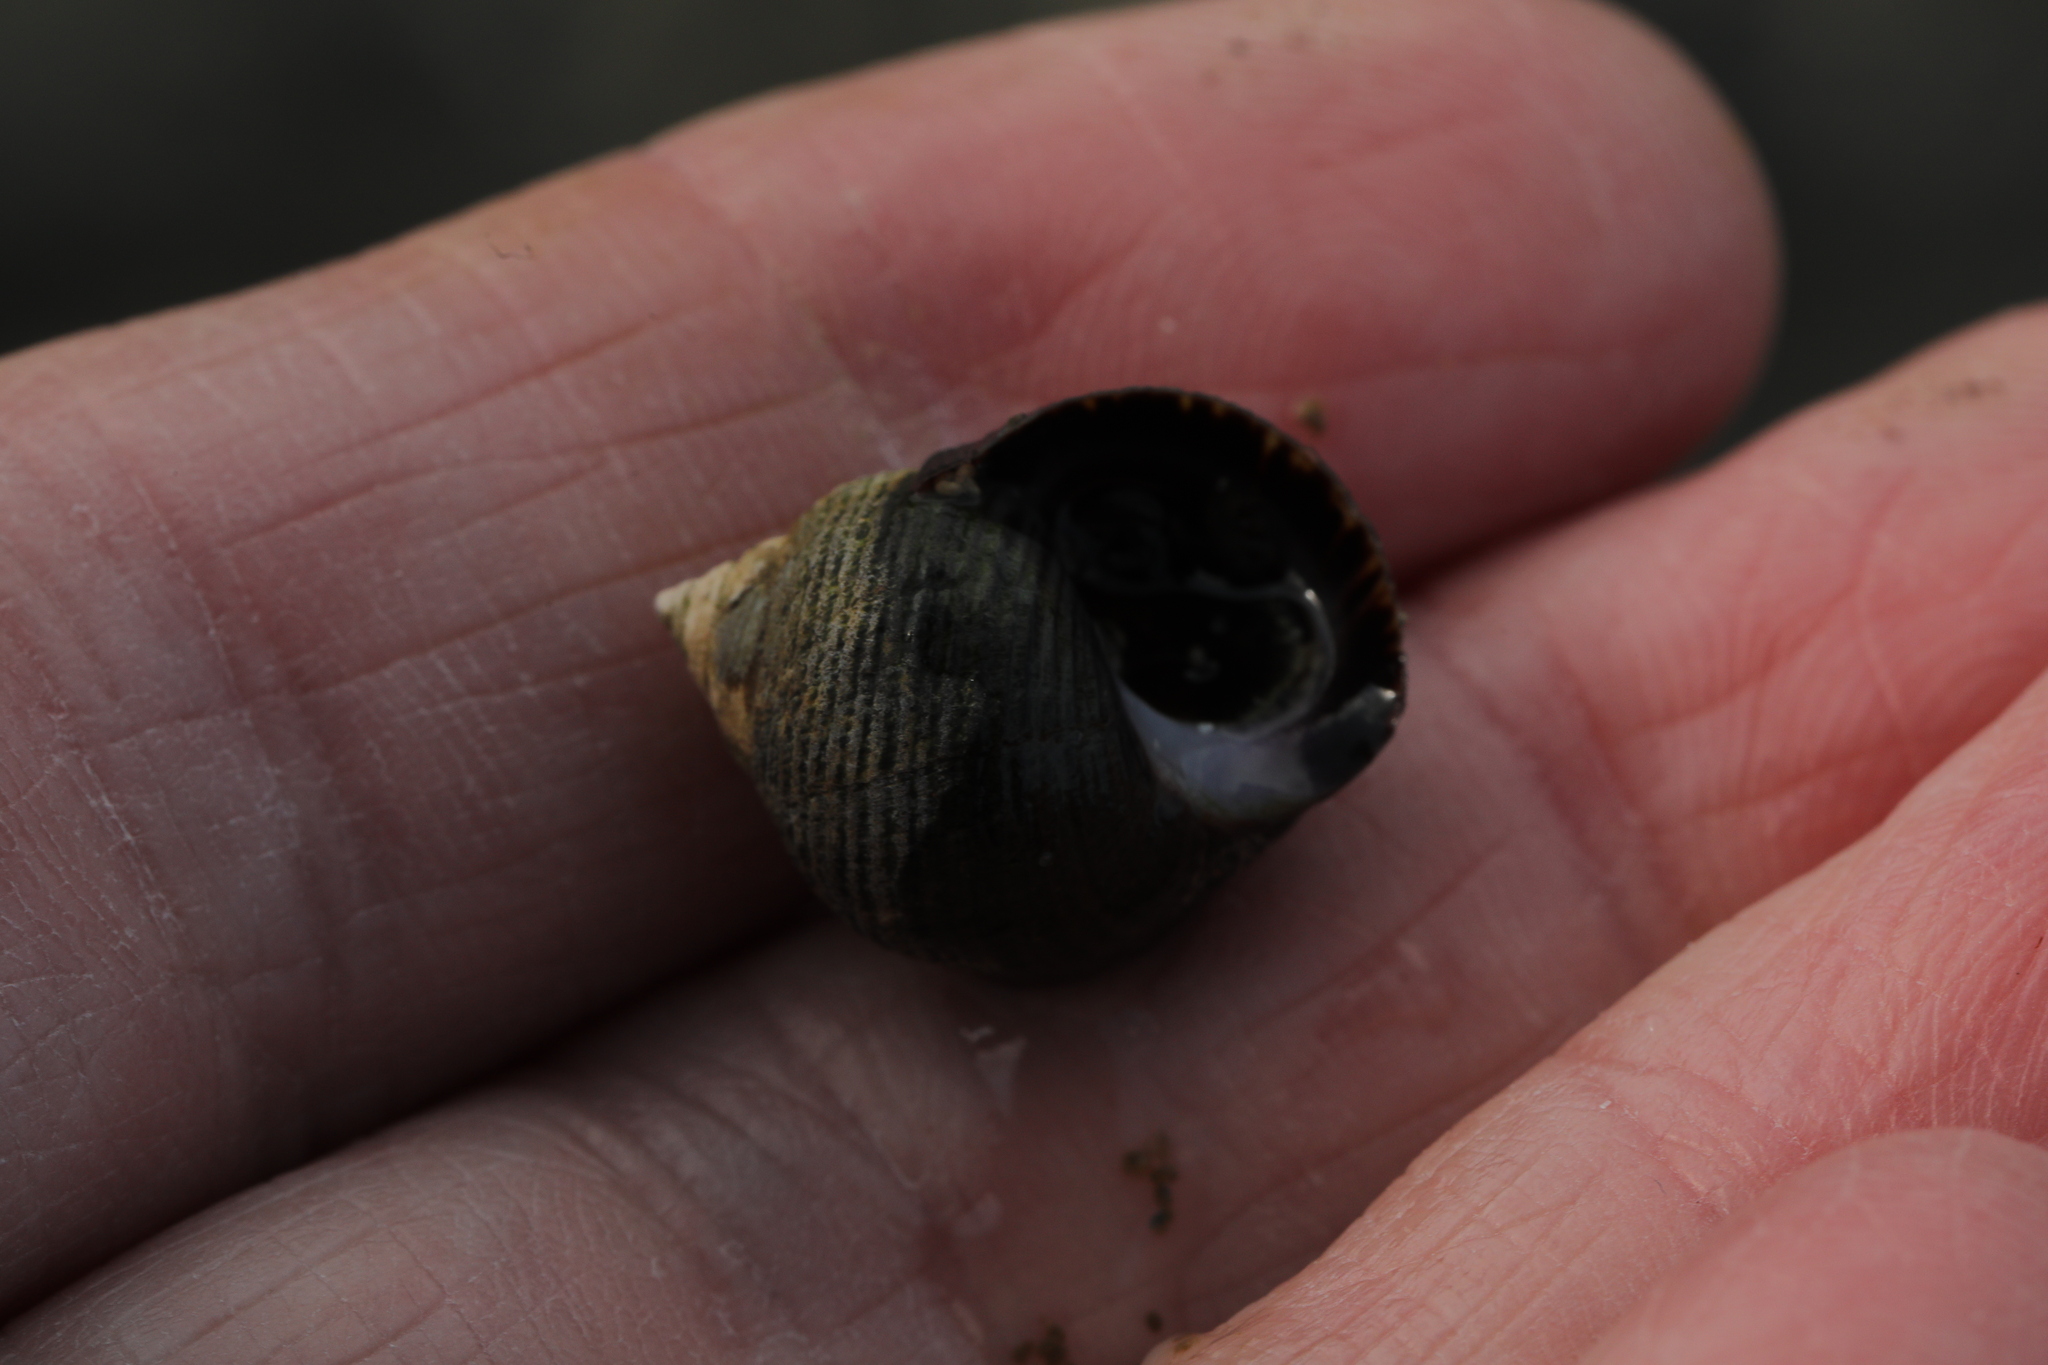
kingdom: Animalia
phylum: Mollusca
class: Gastropoda
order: Littorinimorpha
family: Littorinidae
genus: Littorina
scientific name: Littorina littorea
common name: Common periwinkle
